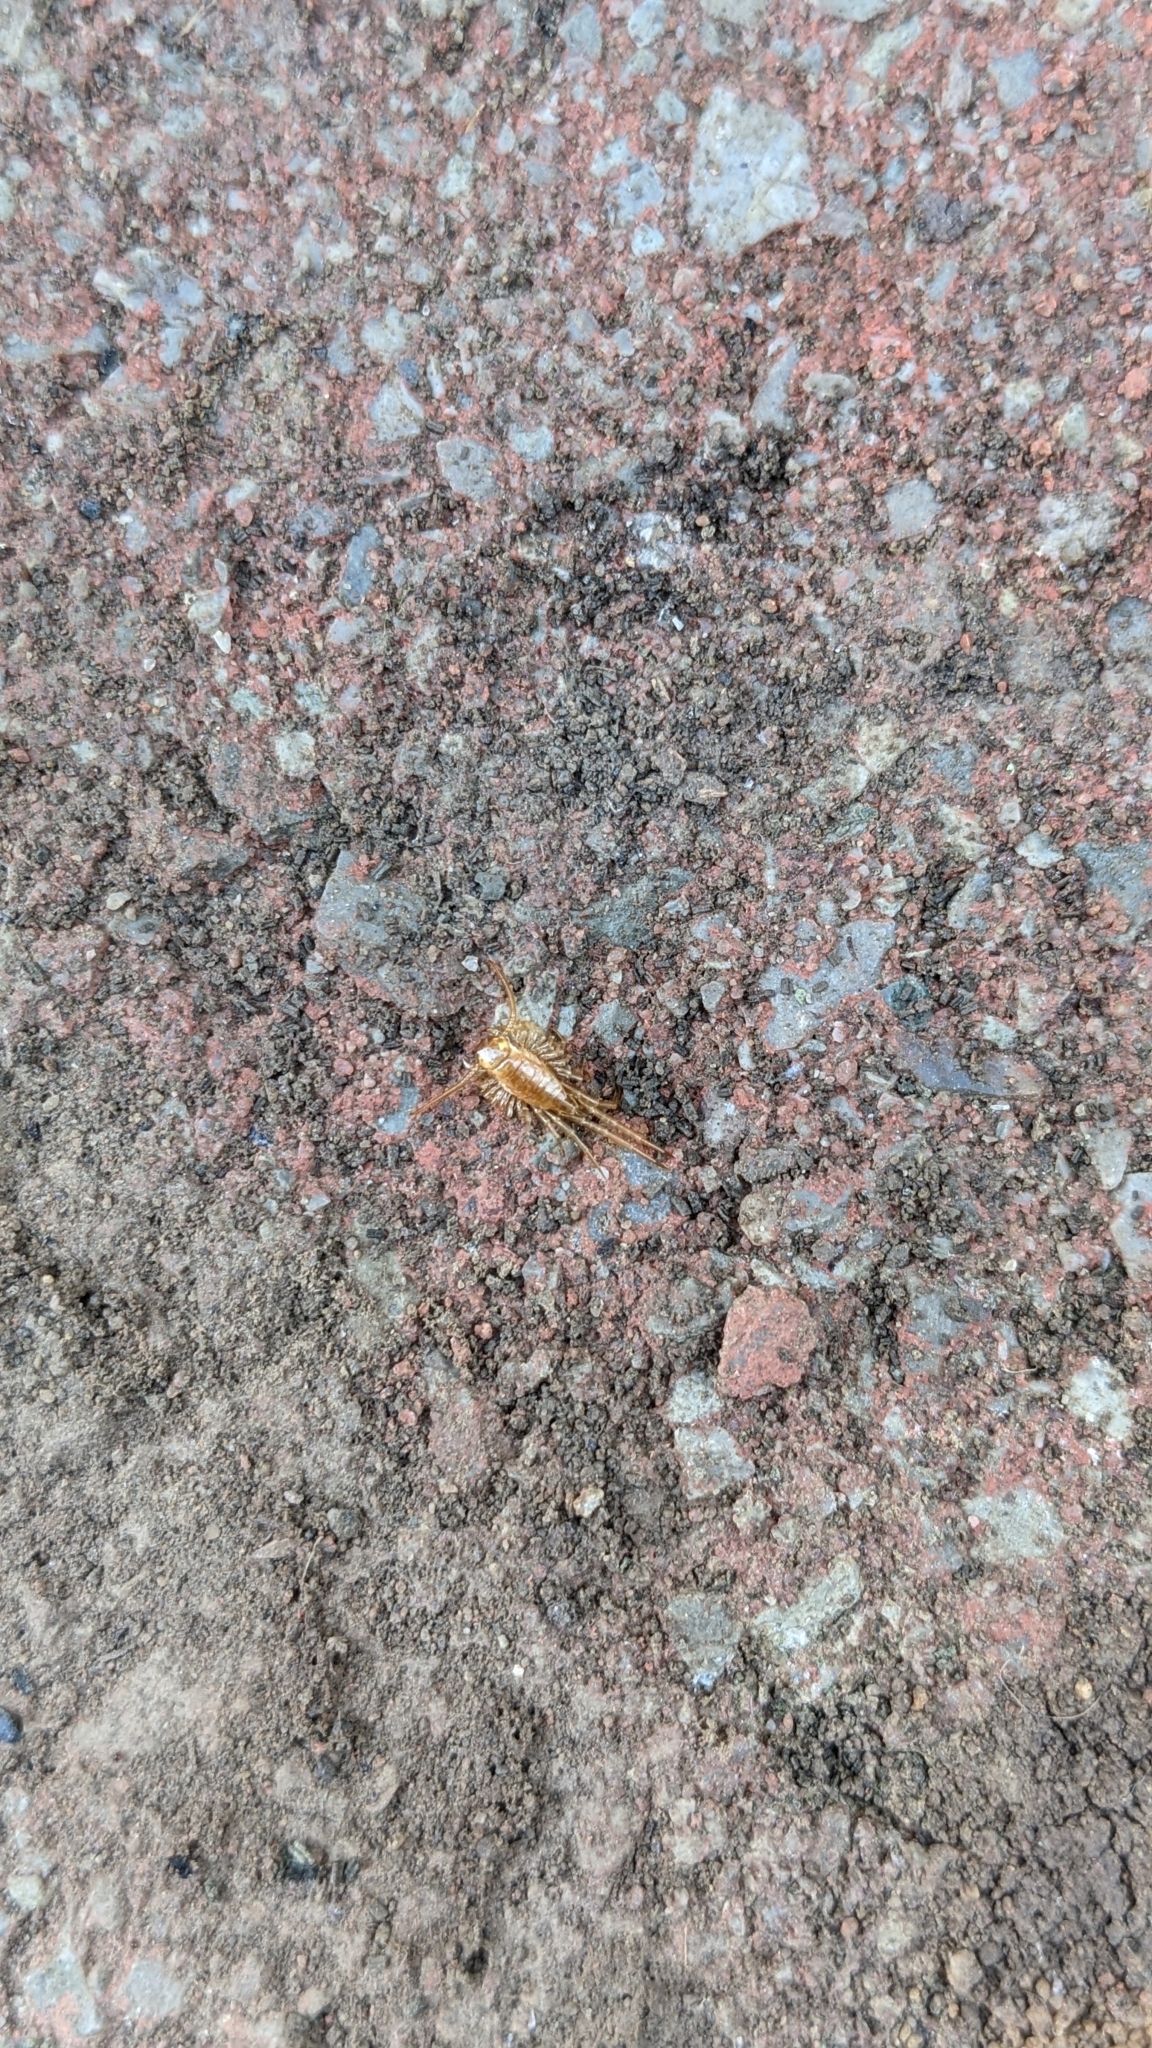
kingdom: Animalia
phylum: Arthropoda
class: Chilopoda
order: Scutigeromorpha
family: Scutigeridae
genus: Scutigera
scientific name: Scutigera coleoptrata
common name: House centipede
